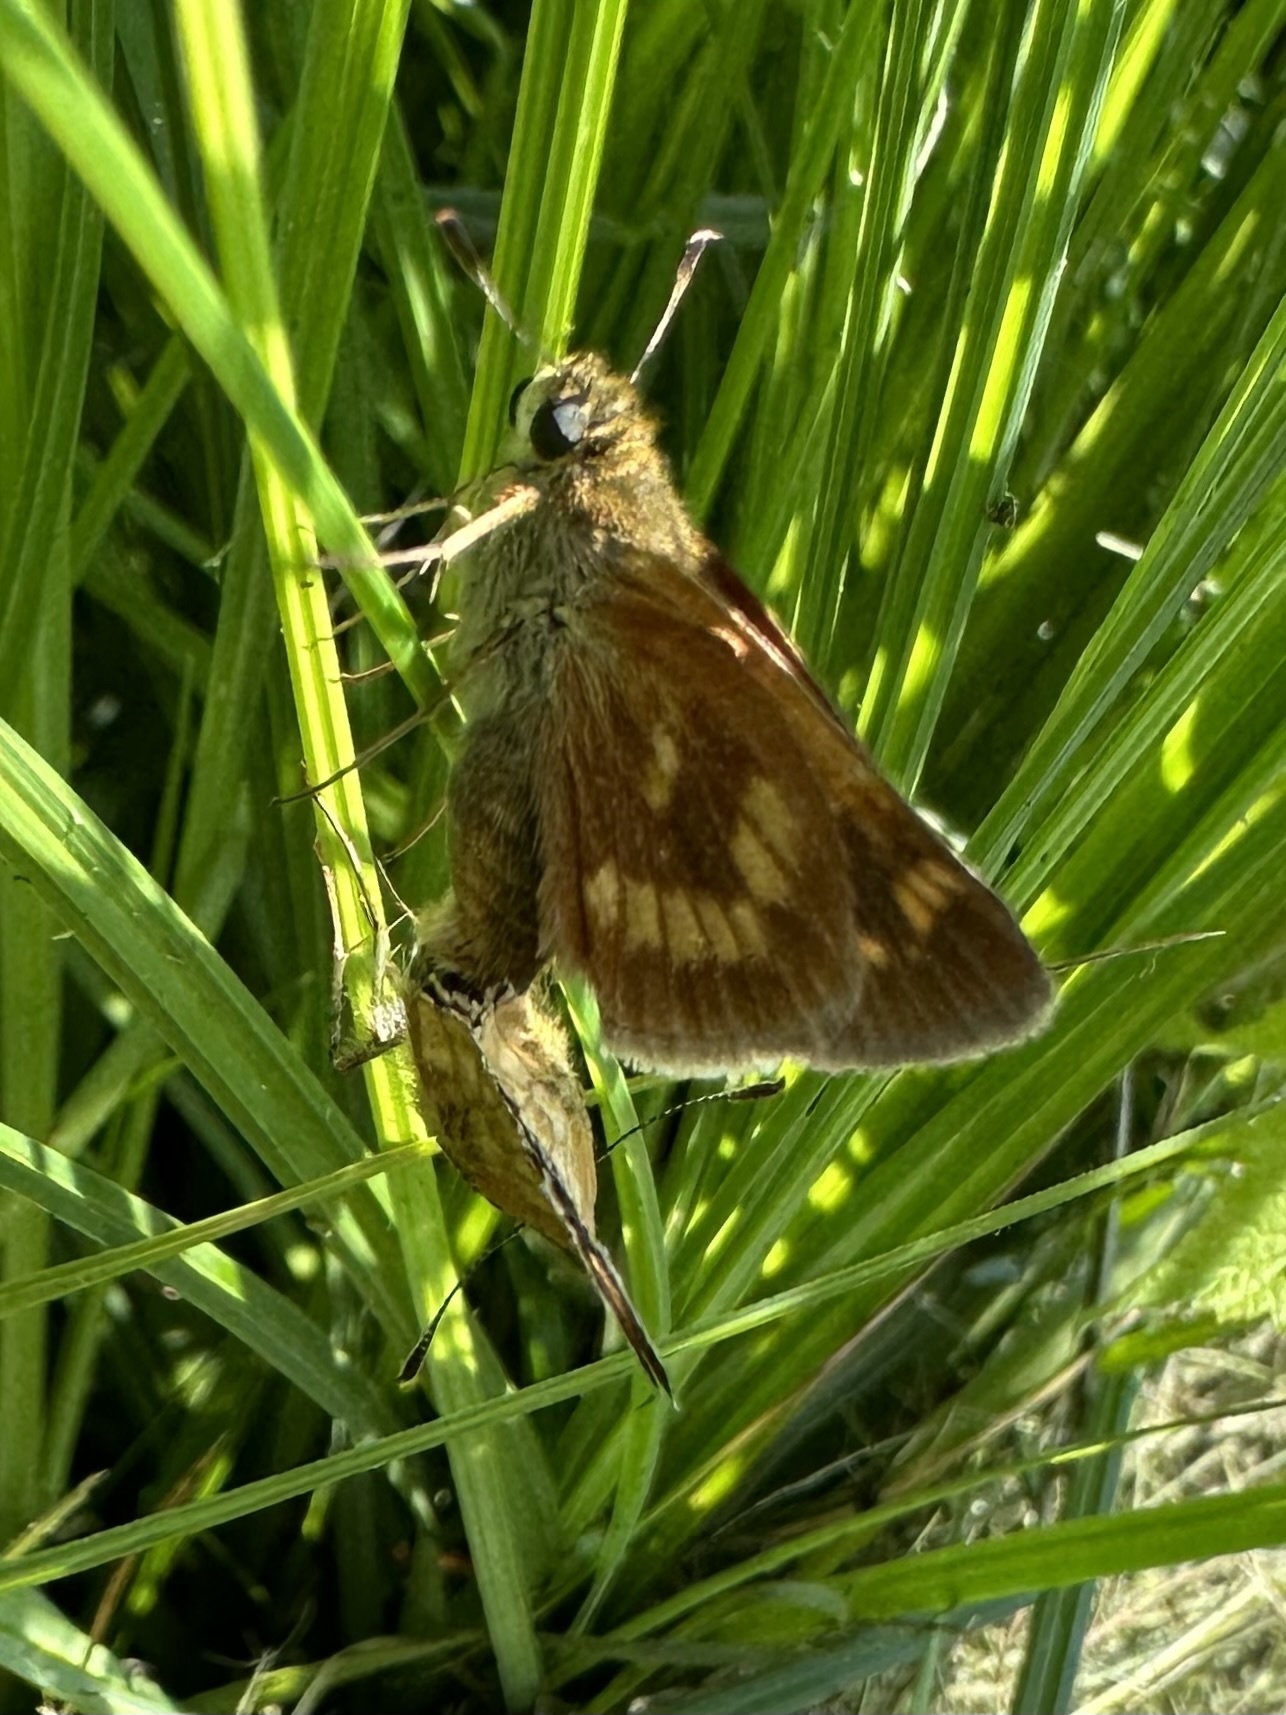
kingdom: Animalia
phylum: Arthropoda
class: Insecta
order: Lepidoptera
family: Hesperiidae
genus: Polites
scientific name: Polites mystic
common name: Long dash
